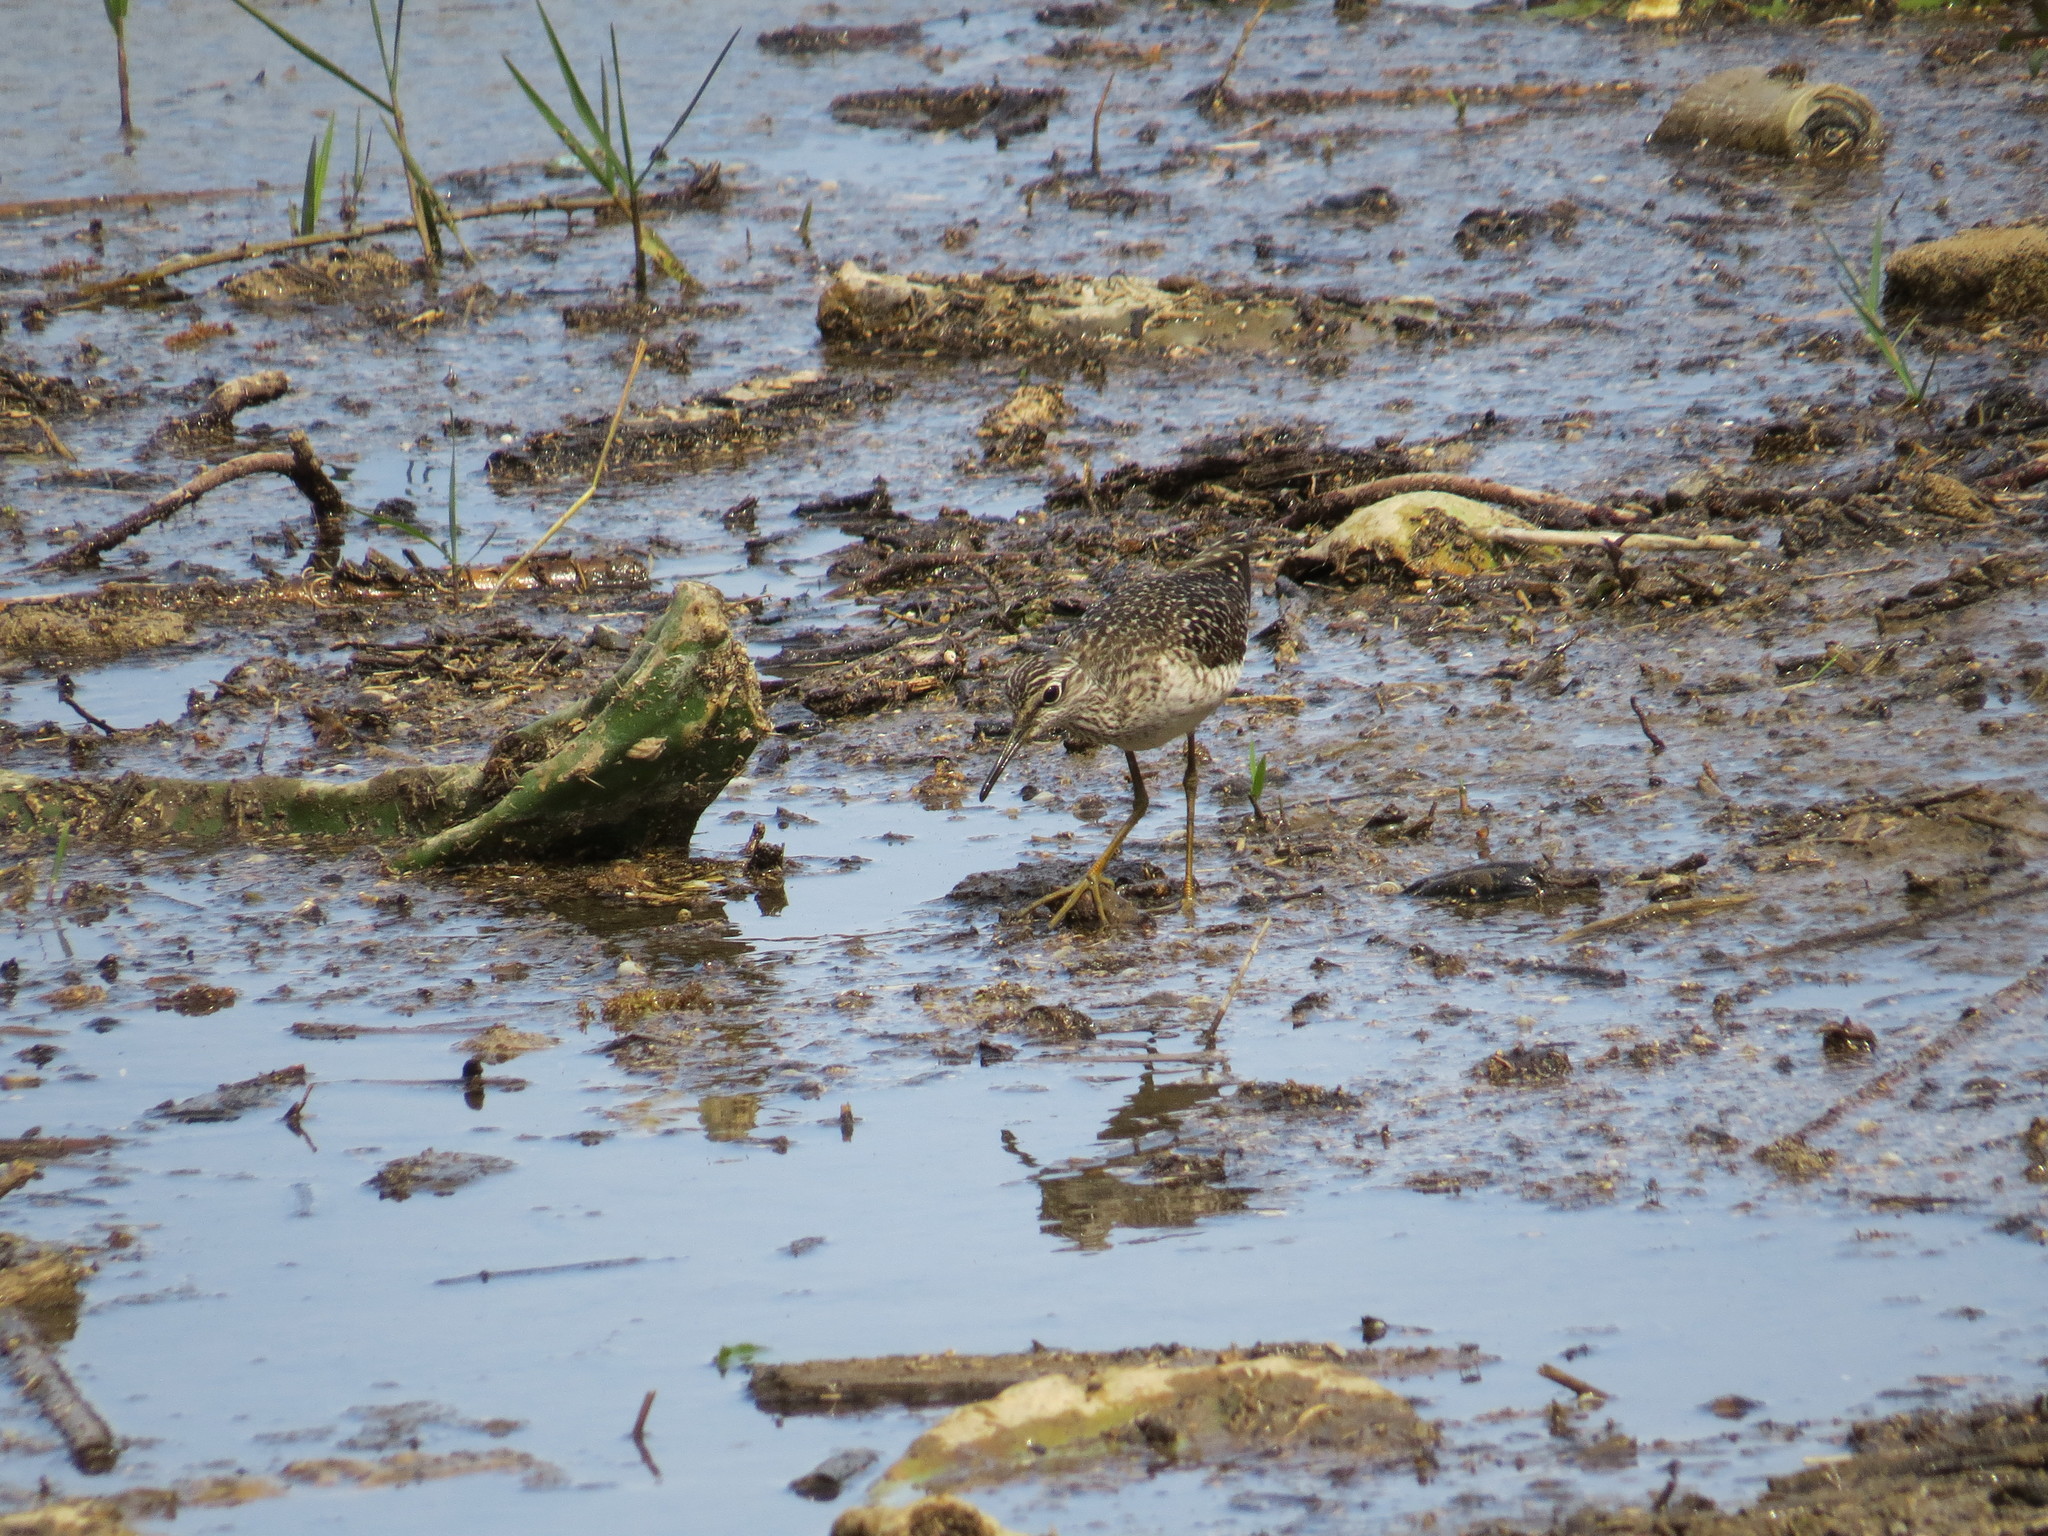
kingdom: Animalia
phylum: Chordata
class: Aves
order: Charadriiformes
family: Scolopacidae
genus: Tringa
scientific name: Tringa glareola
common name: Wood sandpiper
